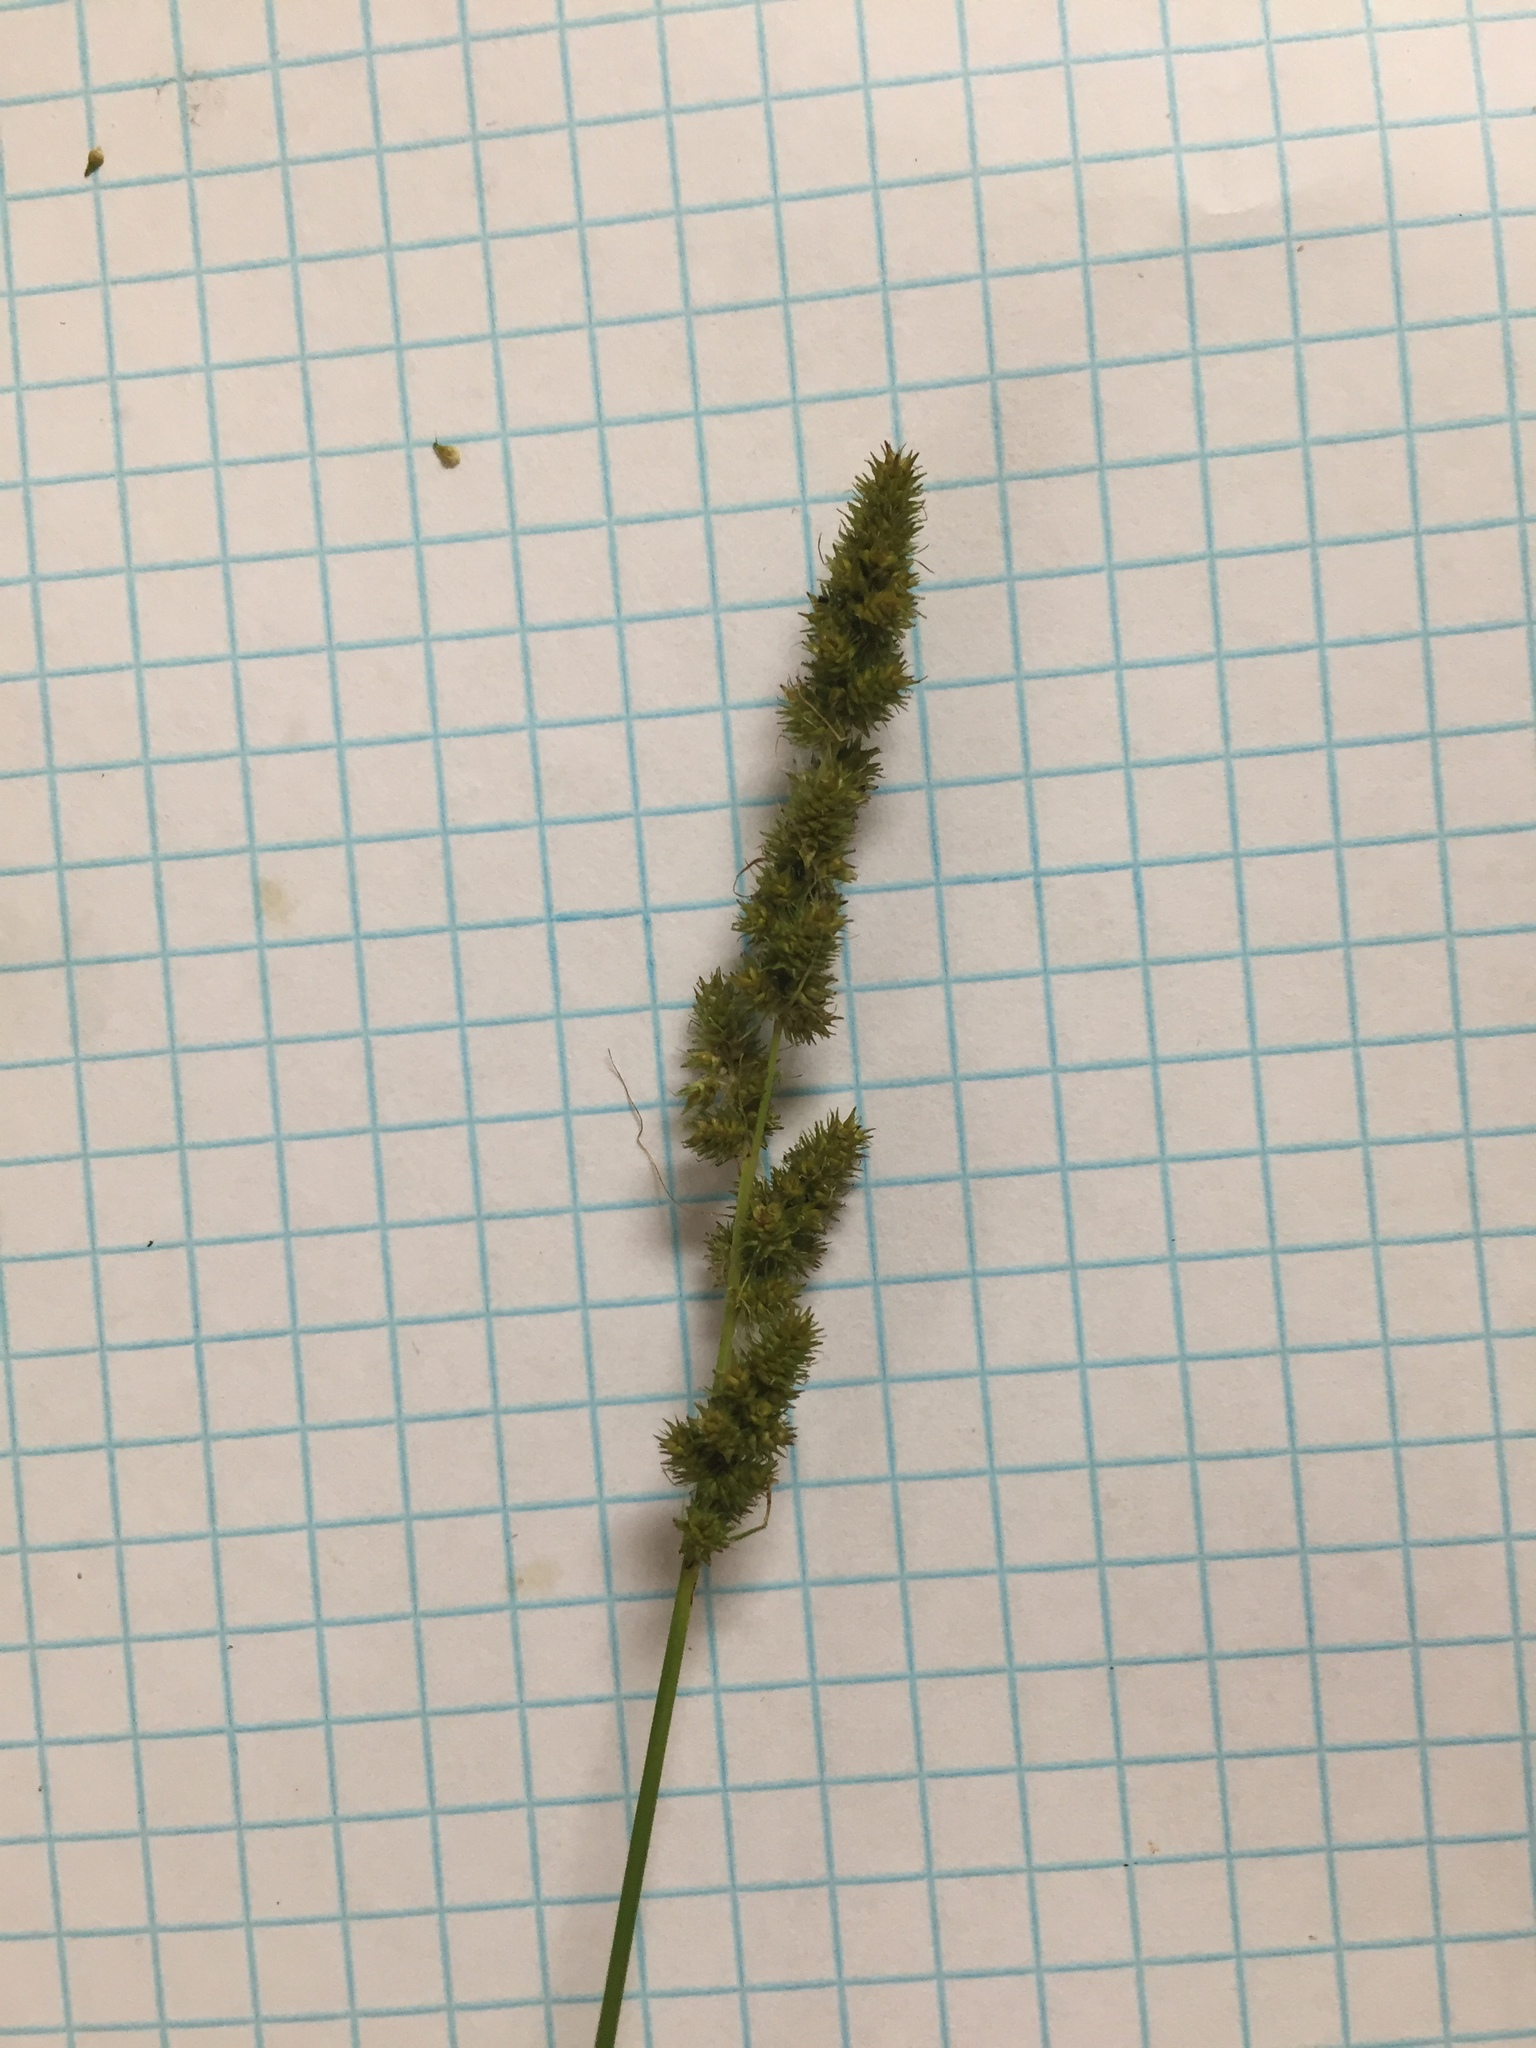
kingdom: Plantae
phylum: Tracheophyta
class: Liliopsida
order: Poales
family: Cyperaceae
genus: Carex
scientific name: Carex vulpinoidea
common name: American fox-sedge
